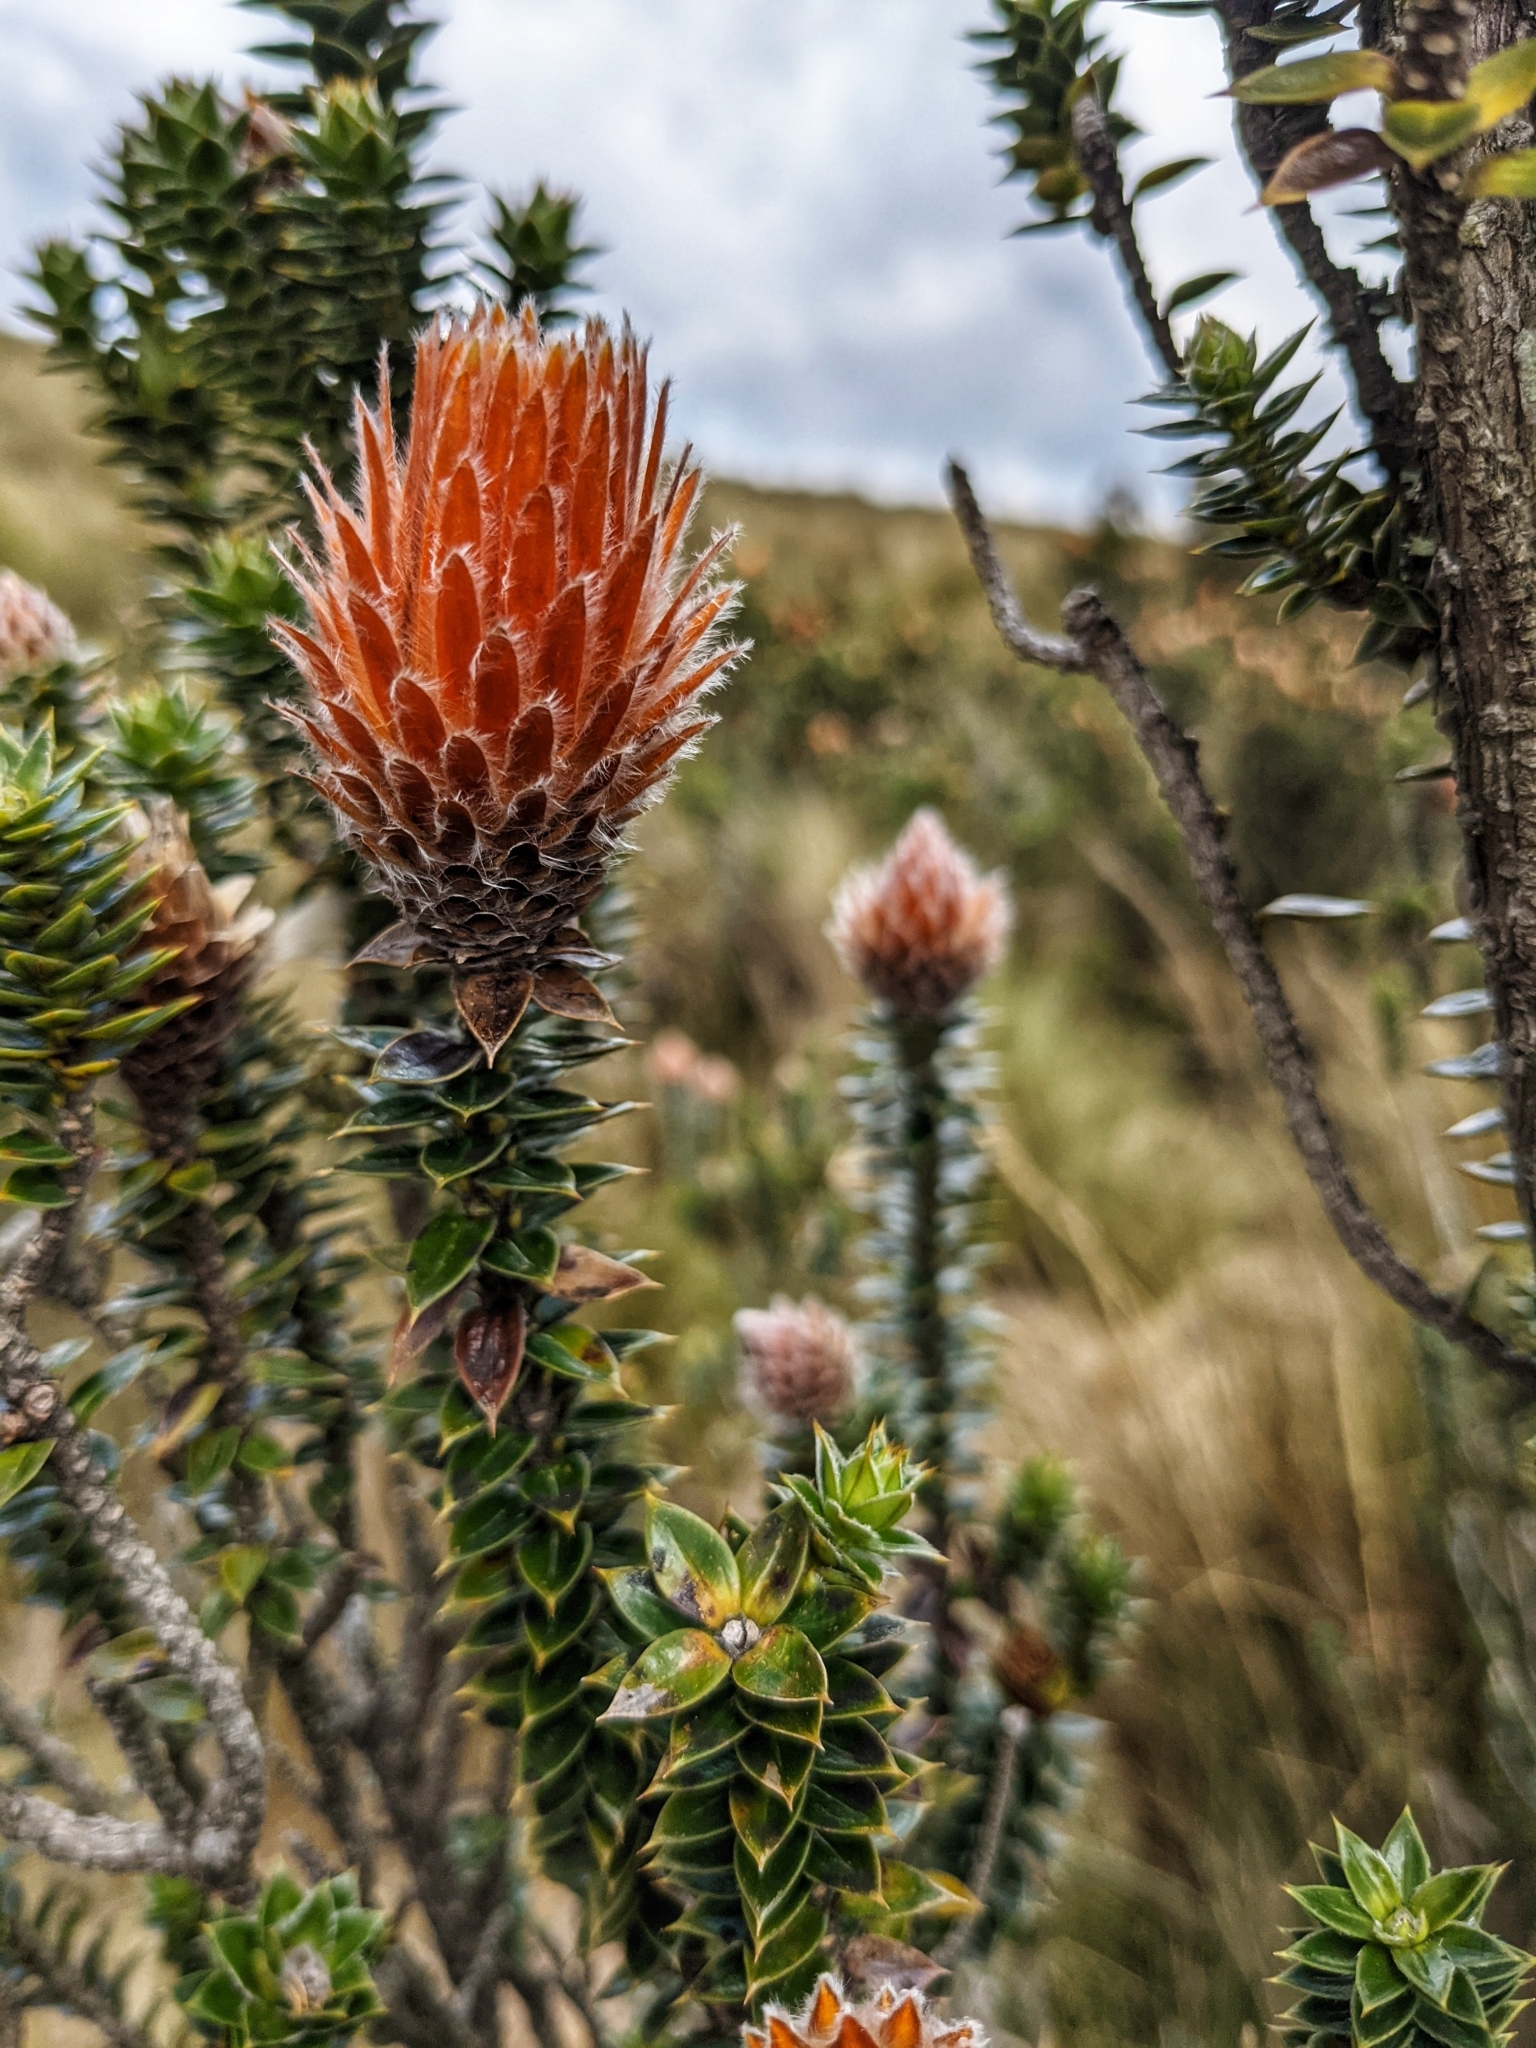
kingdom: Plantae
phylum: Tracheophyta
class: Magnoliopsida
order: Asterales
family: Asteraceae
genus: Chuquiraga
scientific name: Chuquiraga jussieui
